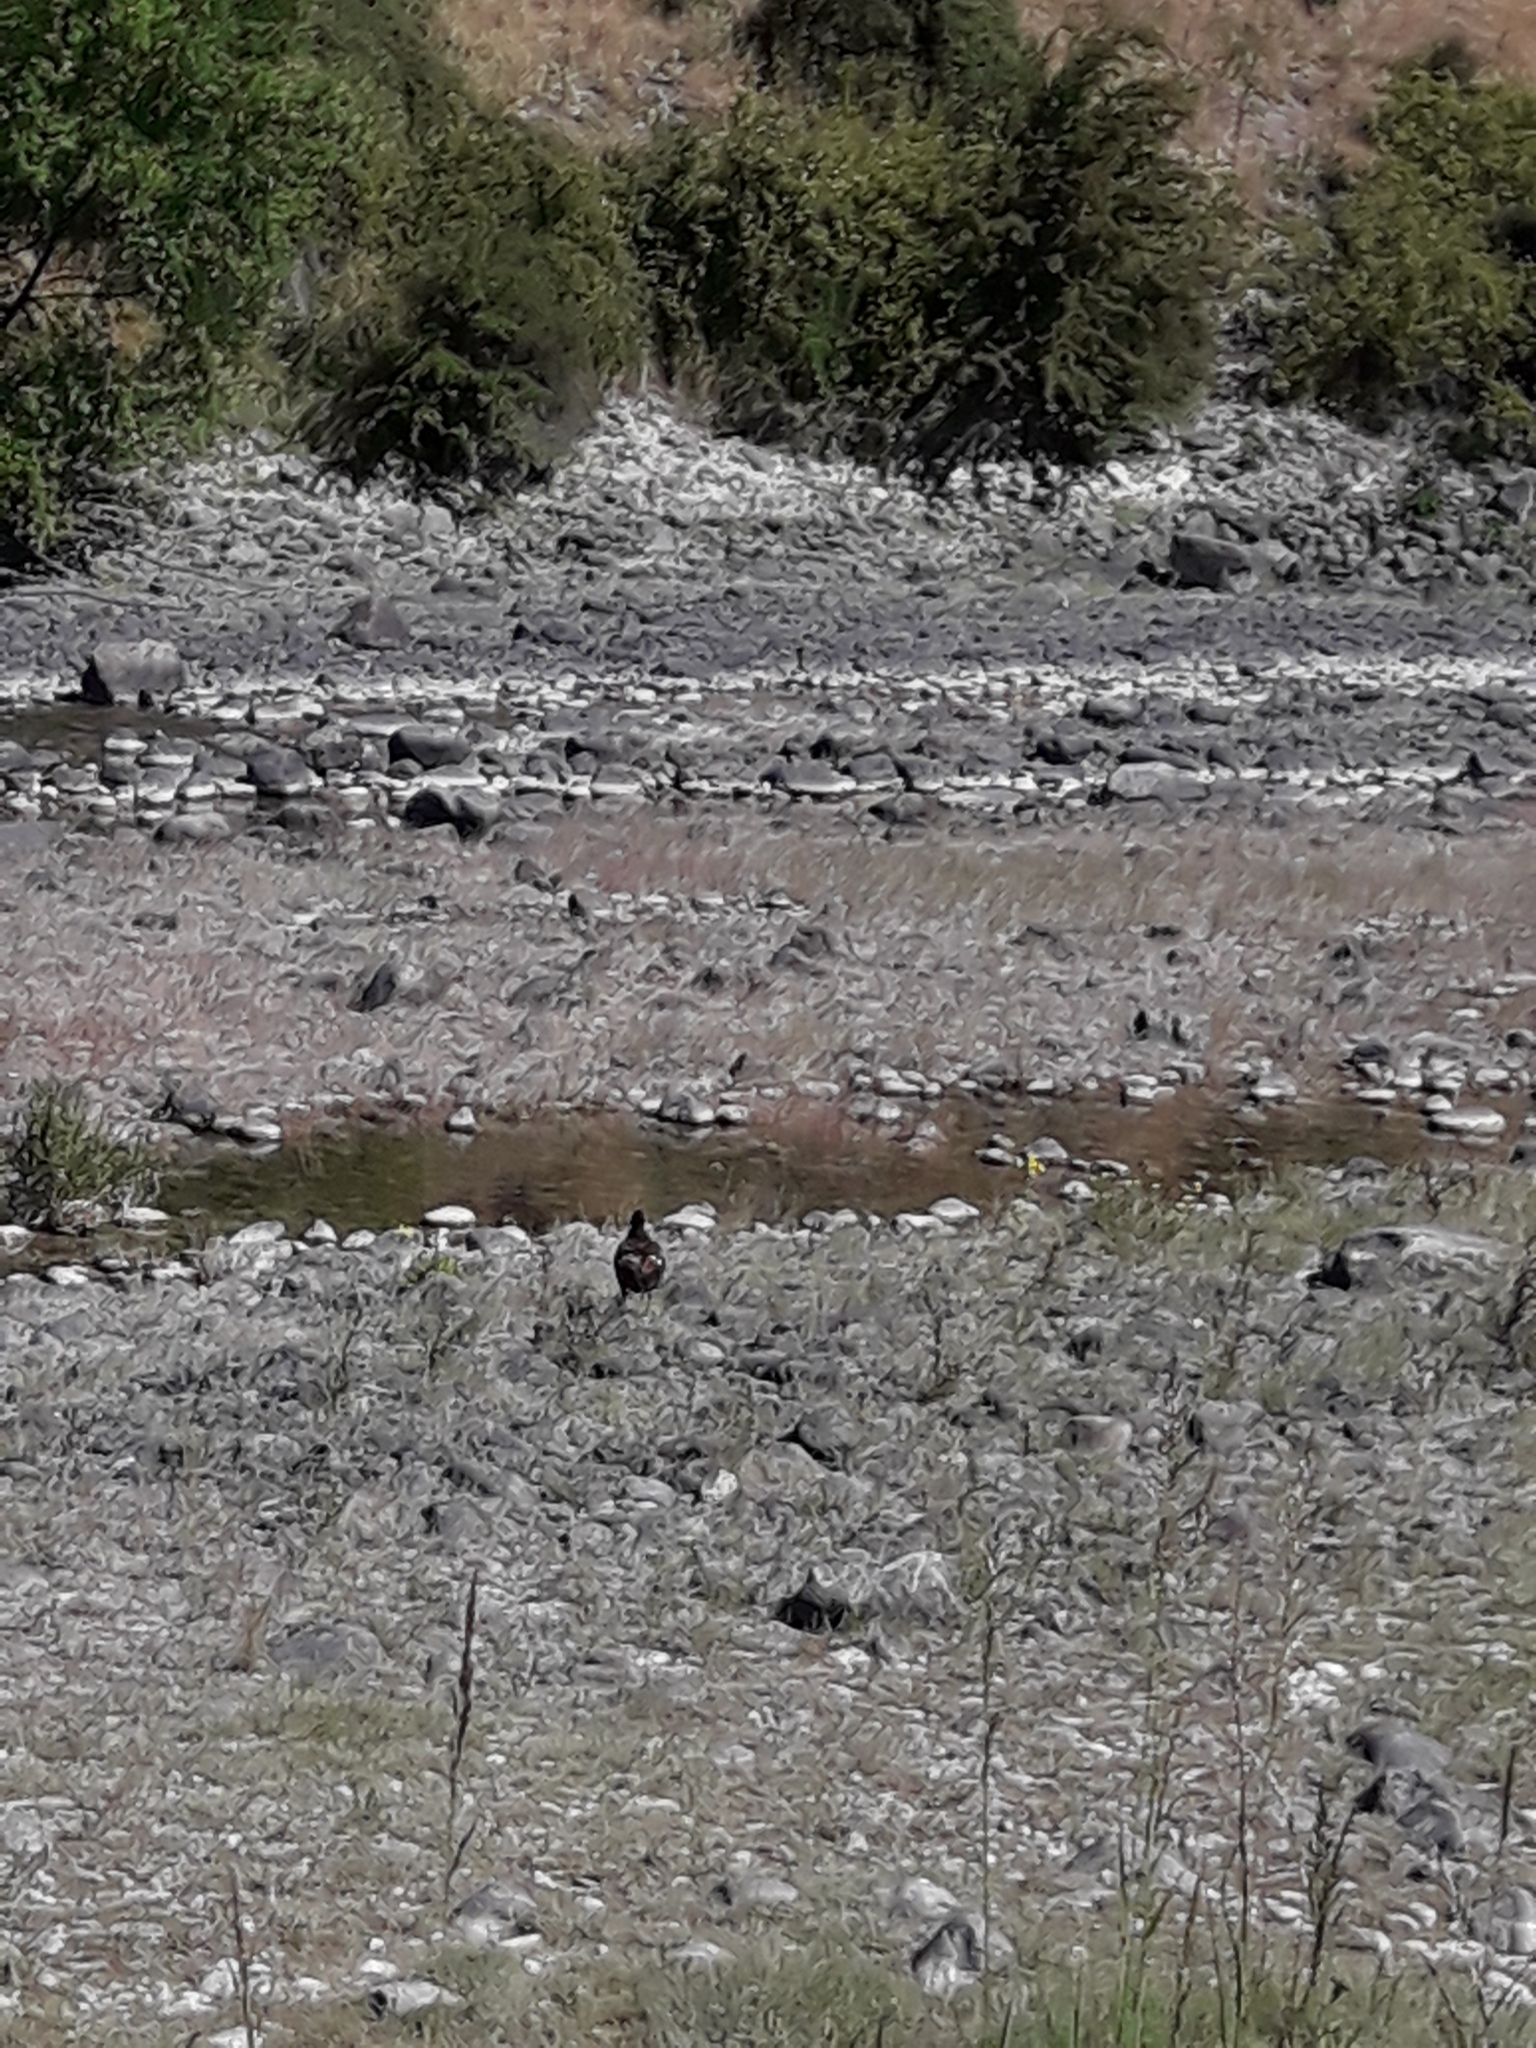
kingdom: Animalia
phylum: Chordata
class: Aves
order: Anseriformes
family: Anatidae
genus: Tadorna
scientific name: Tadorna variegata
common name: Paradise shelduck
